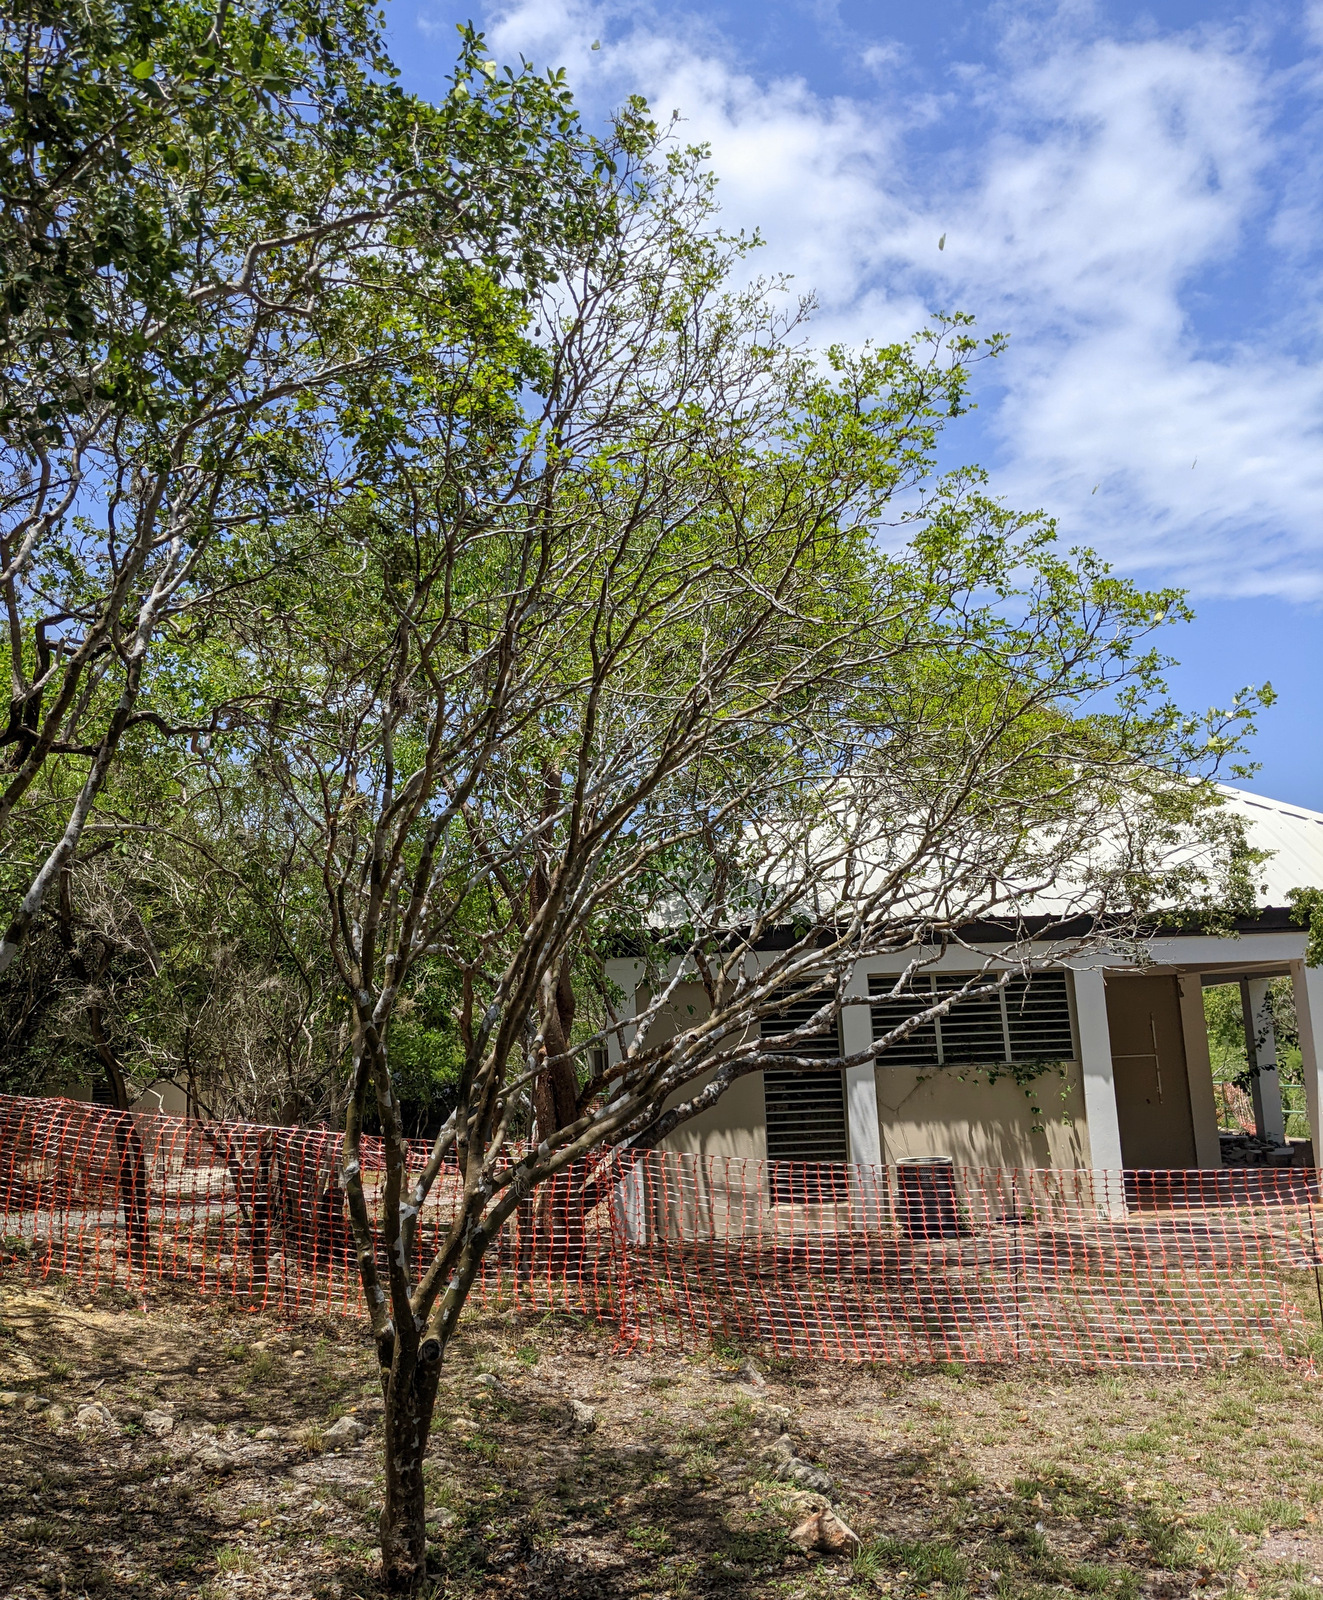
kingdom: Plantae
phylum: Tracheophyta
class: Magnoliopsida
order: Zygophyllales
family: Zygophyllaceae
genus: Guaiacum
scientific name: Guaiacum officinale
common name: Lignum vitae
